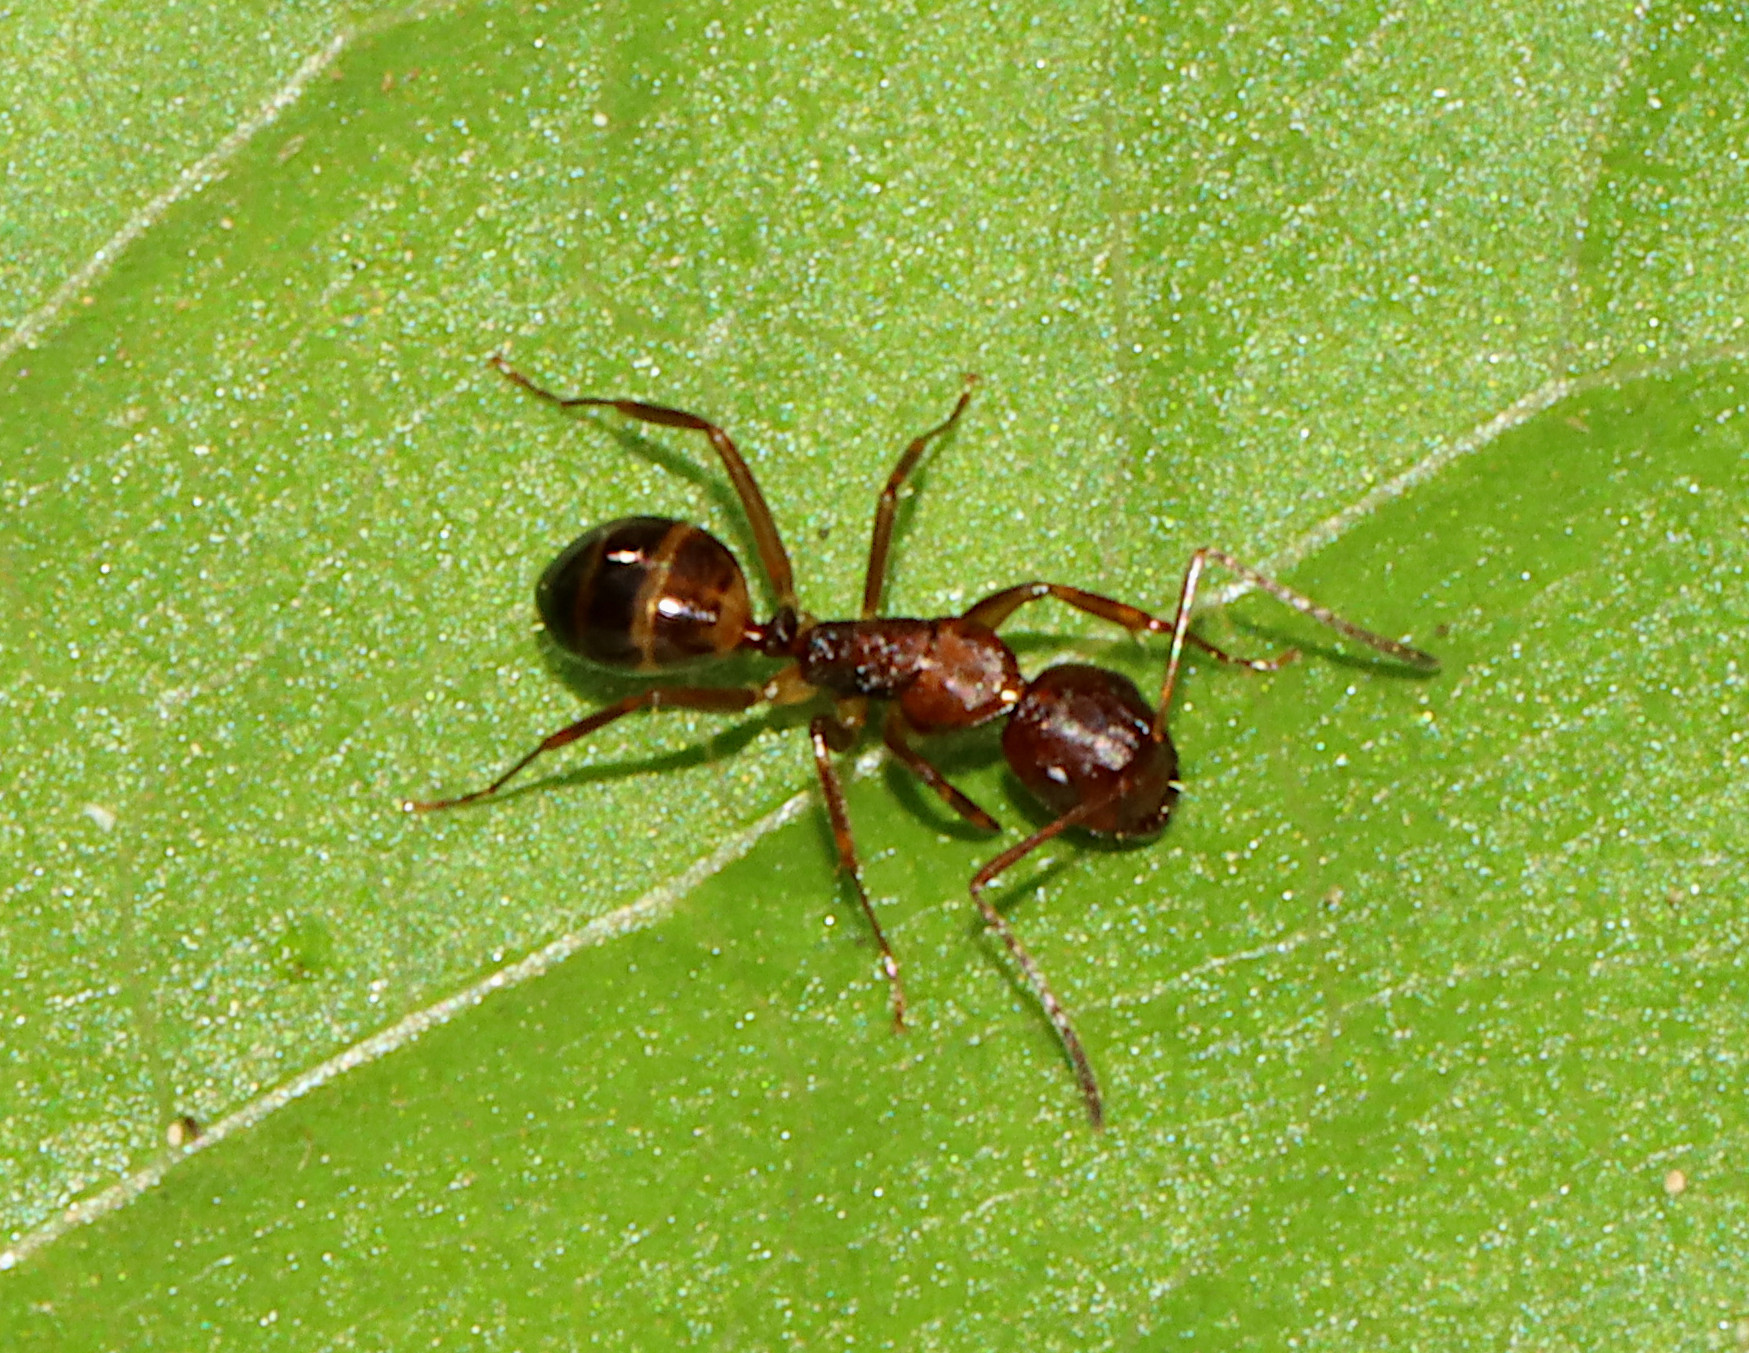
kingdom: Animalia
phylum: Arthropoda
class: Insecta
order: Hymenoptera
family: Formicidae
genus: Camponotus
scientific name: Camponotus subbarbatus
